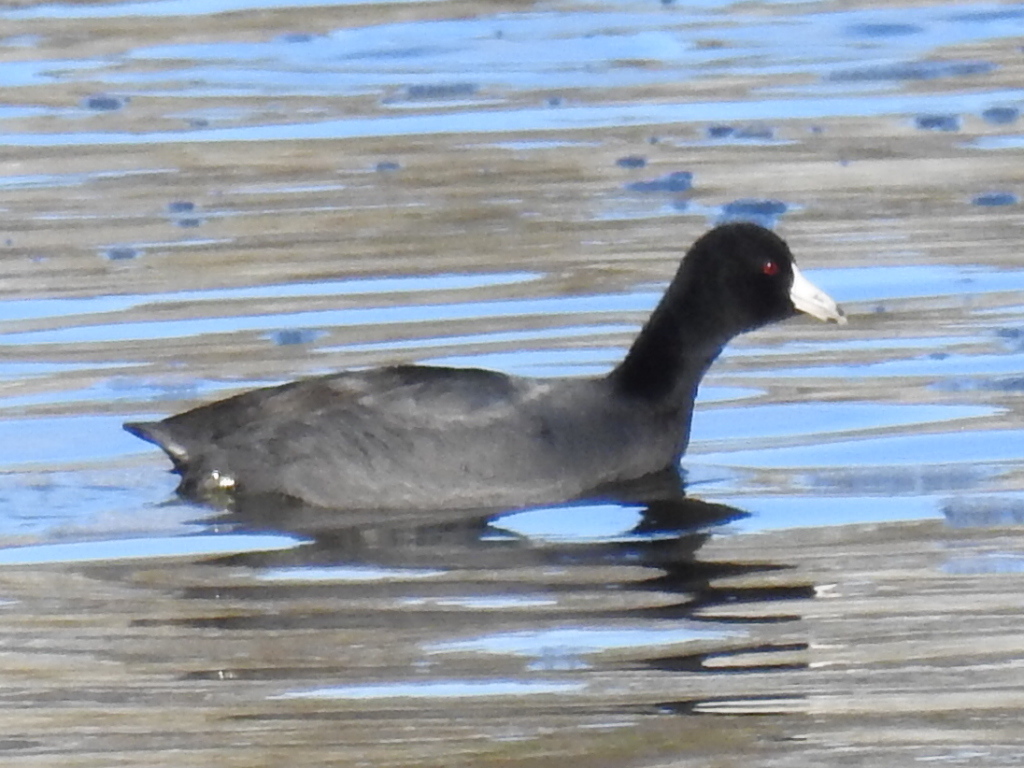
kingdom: Animalia
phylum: Chordata
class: Aves
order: Gruiformes
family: Rallidae
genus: Fulica
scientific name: Fulica americana
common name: American coot
